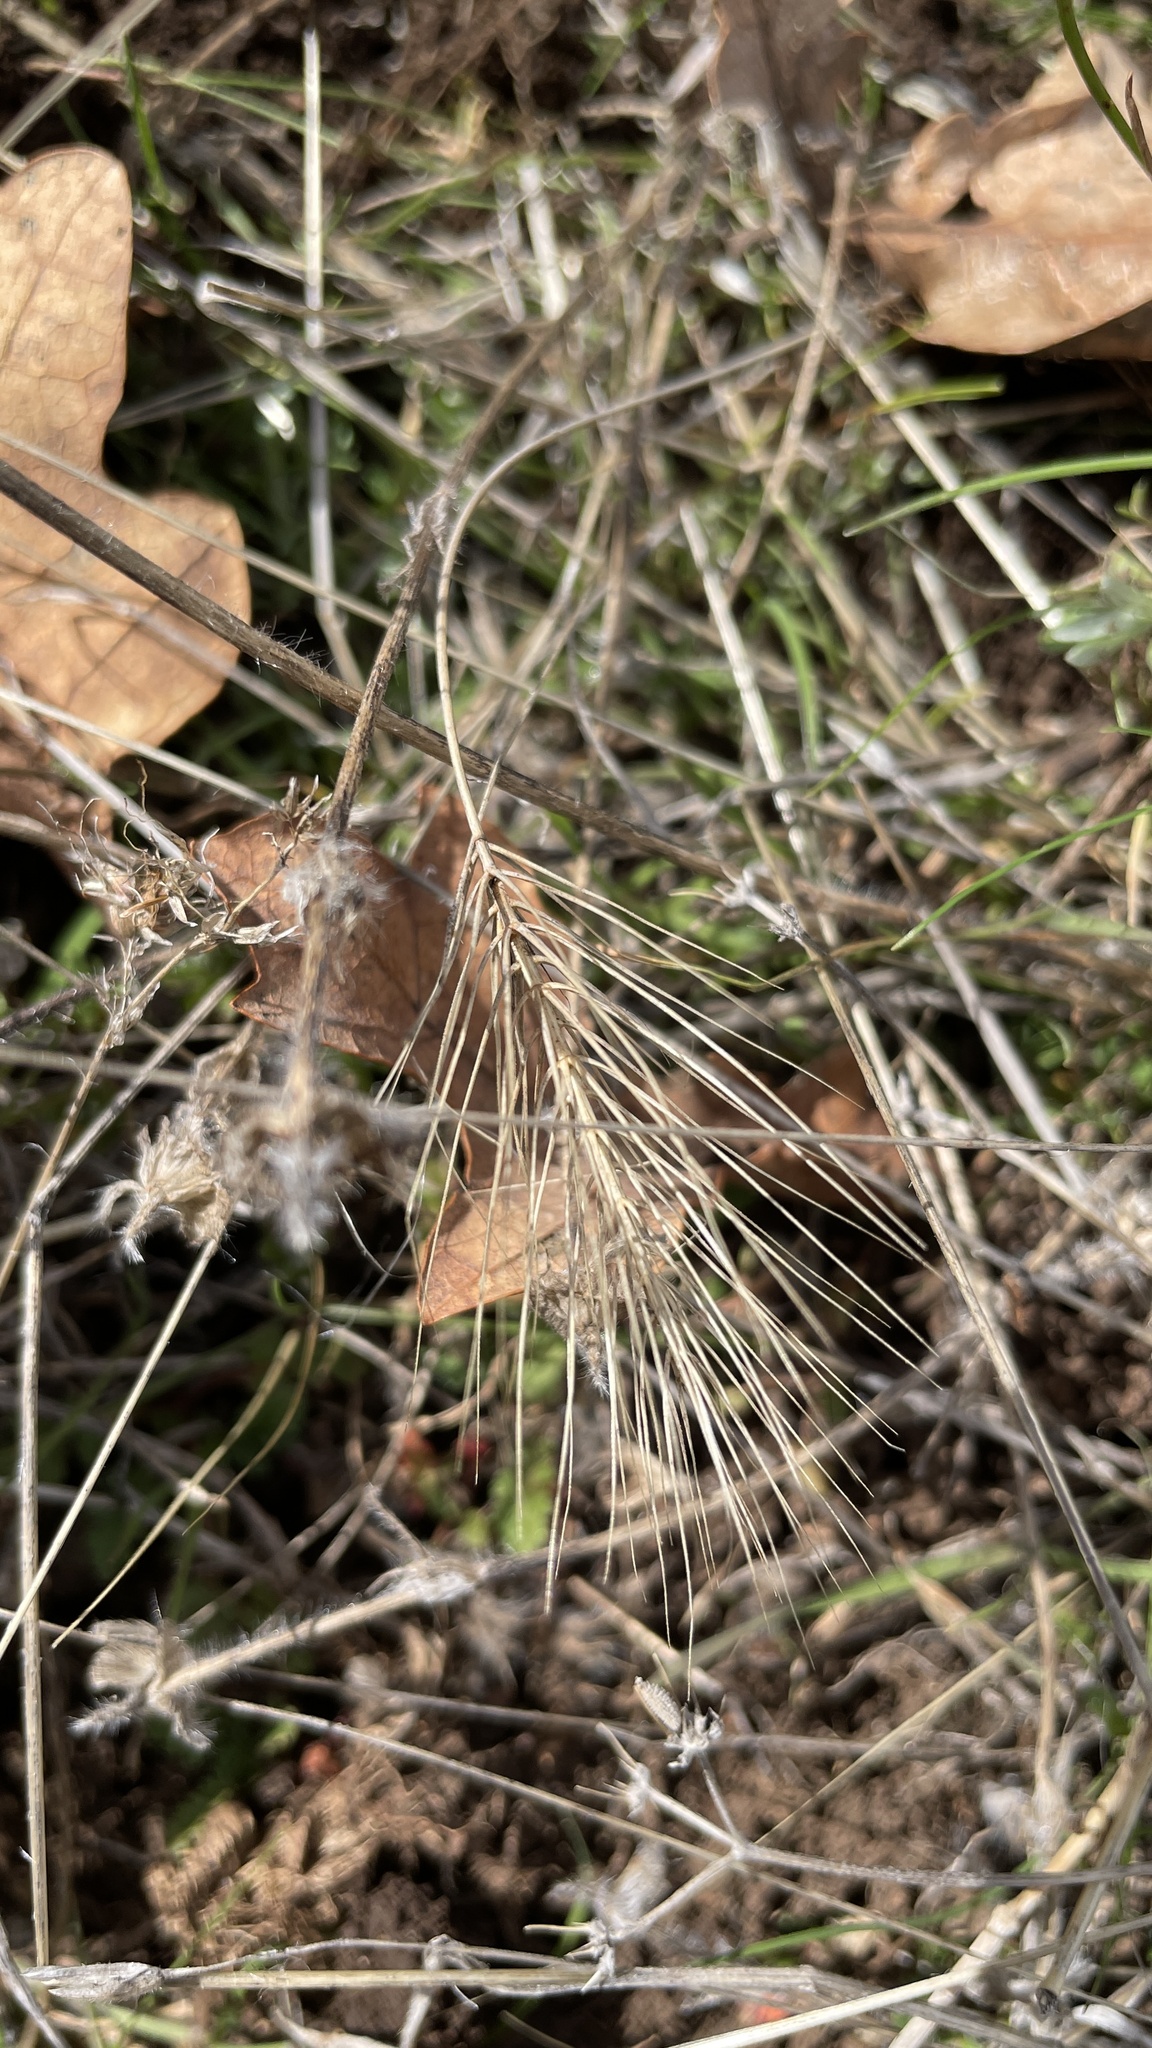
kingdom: Plantae
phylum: Tracheophyta
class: Liliopsida
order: Poales
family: Poaceae
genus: Taeniatherum
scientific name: Taeniatherum caput-medusae
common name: Medusahead
